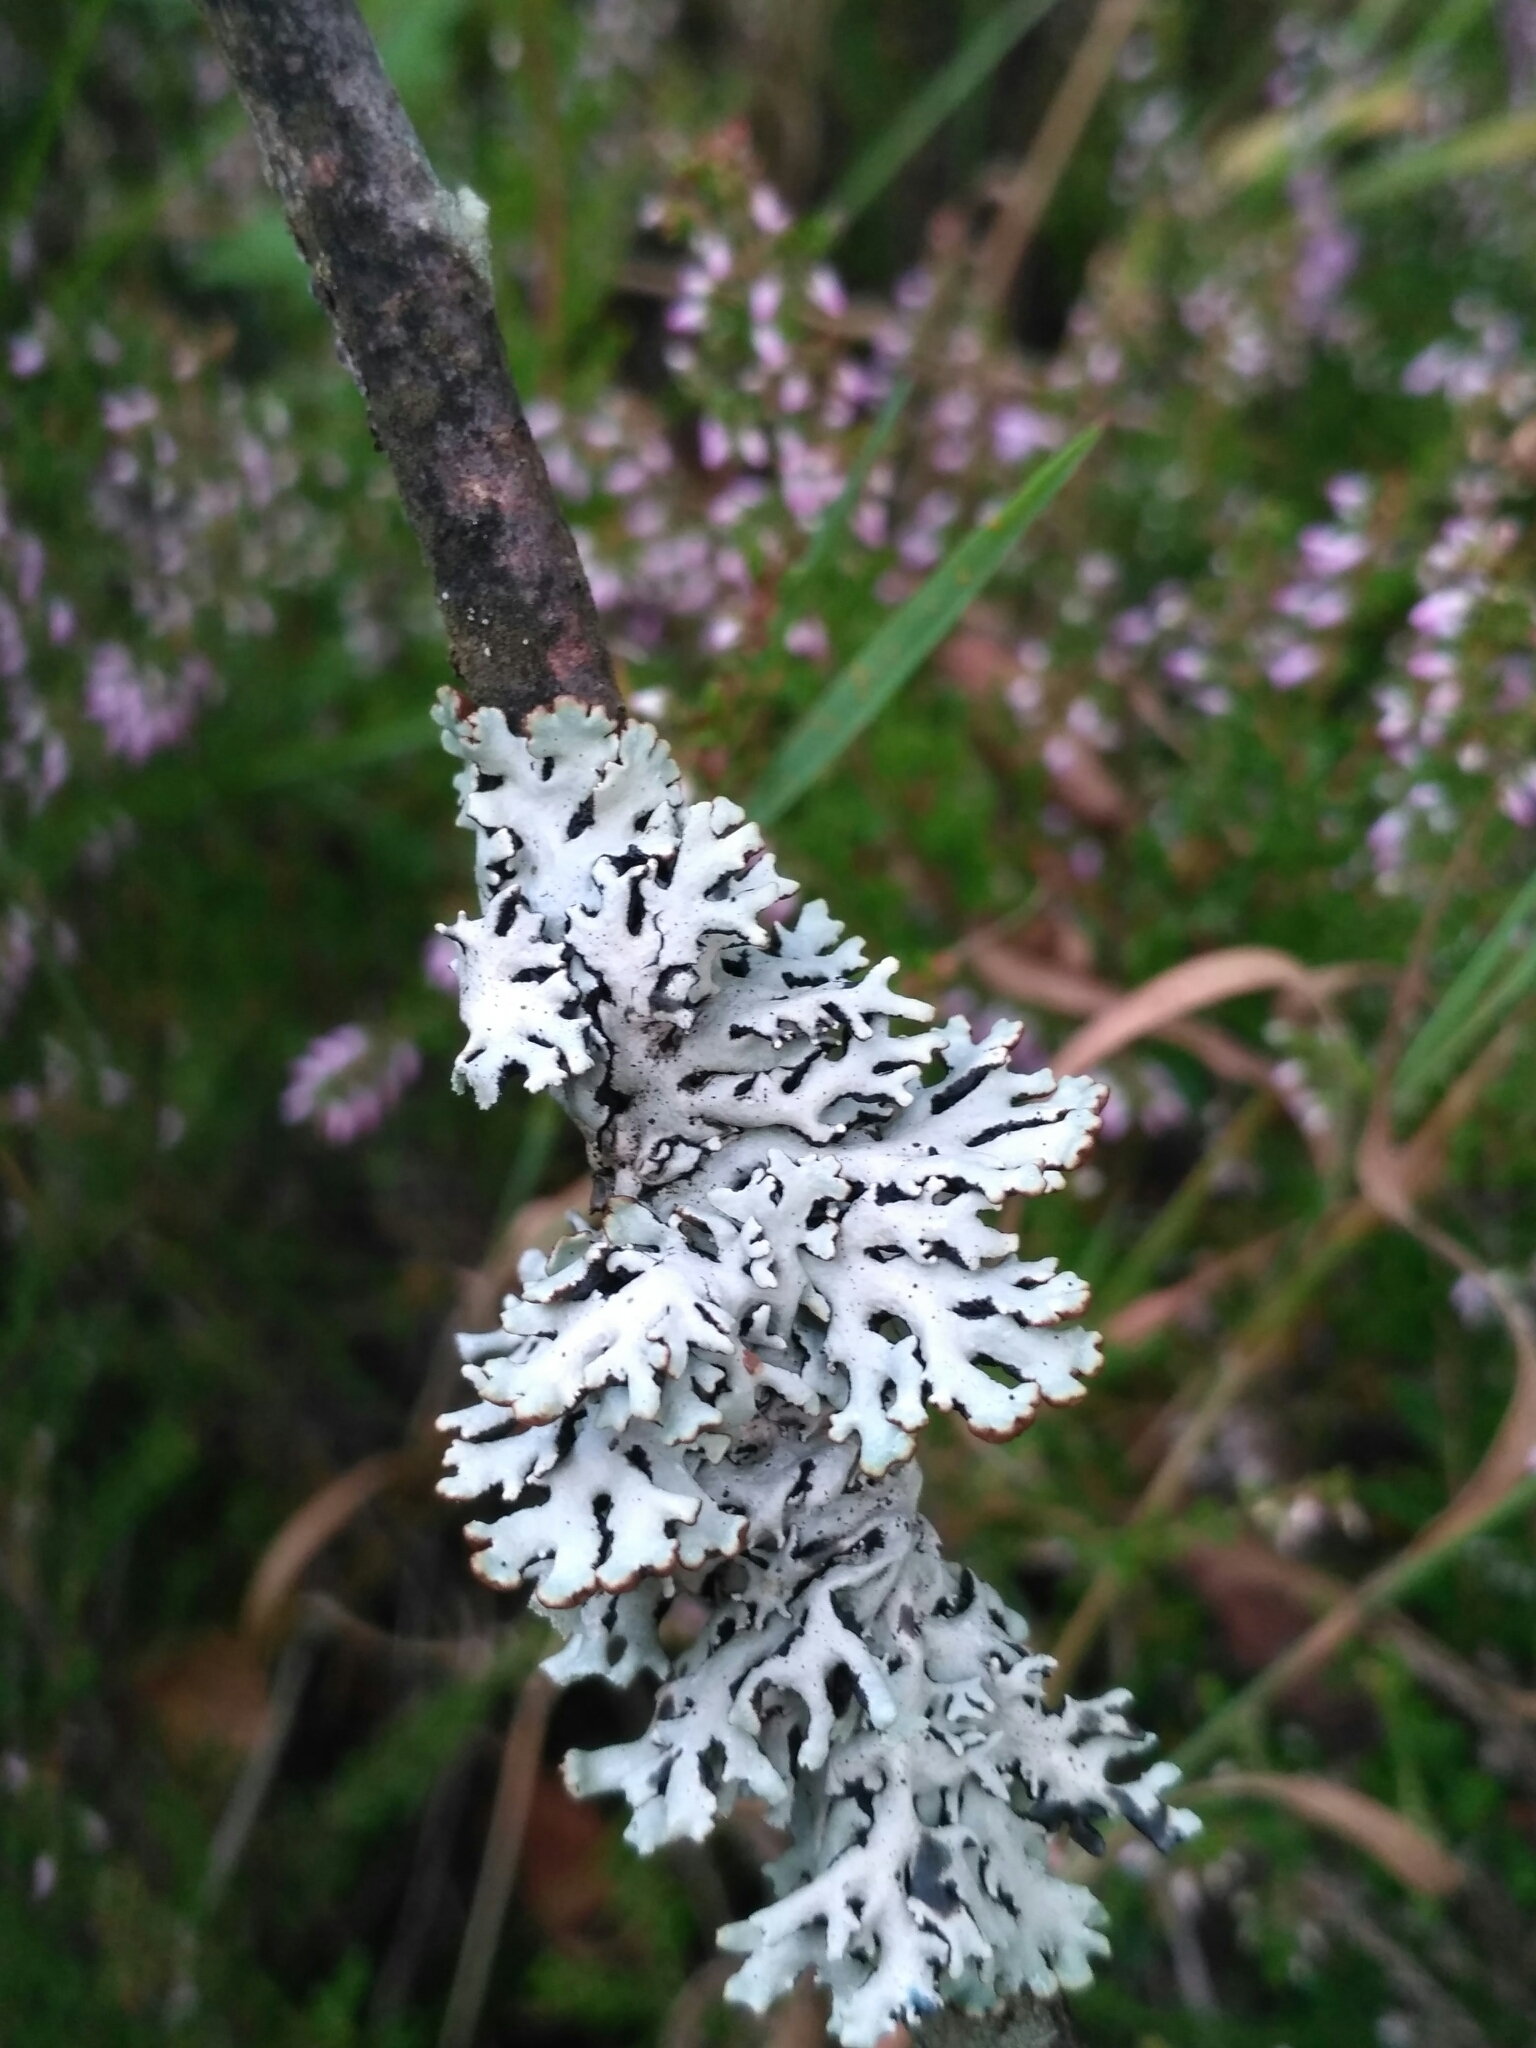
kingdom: Fungi
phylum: Ascomycota
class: Lecanoromycetes
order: Lecanorales
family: Parmeliaceae
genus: Hypogymnia
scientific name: Hypogymnia physodes
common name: Dark crottle
